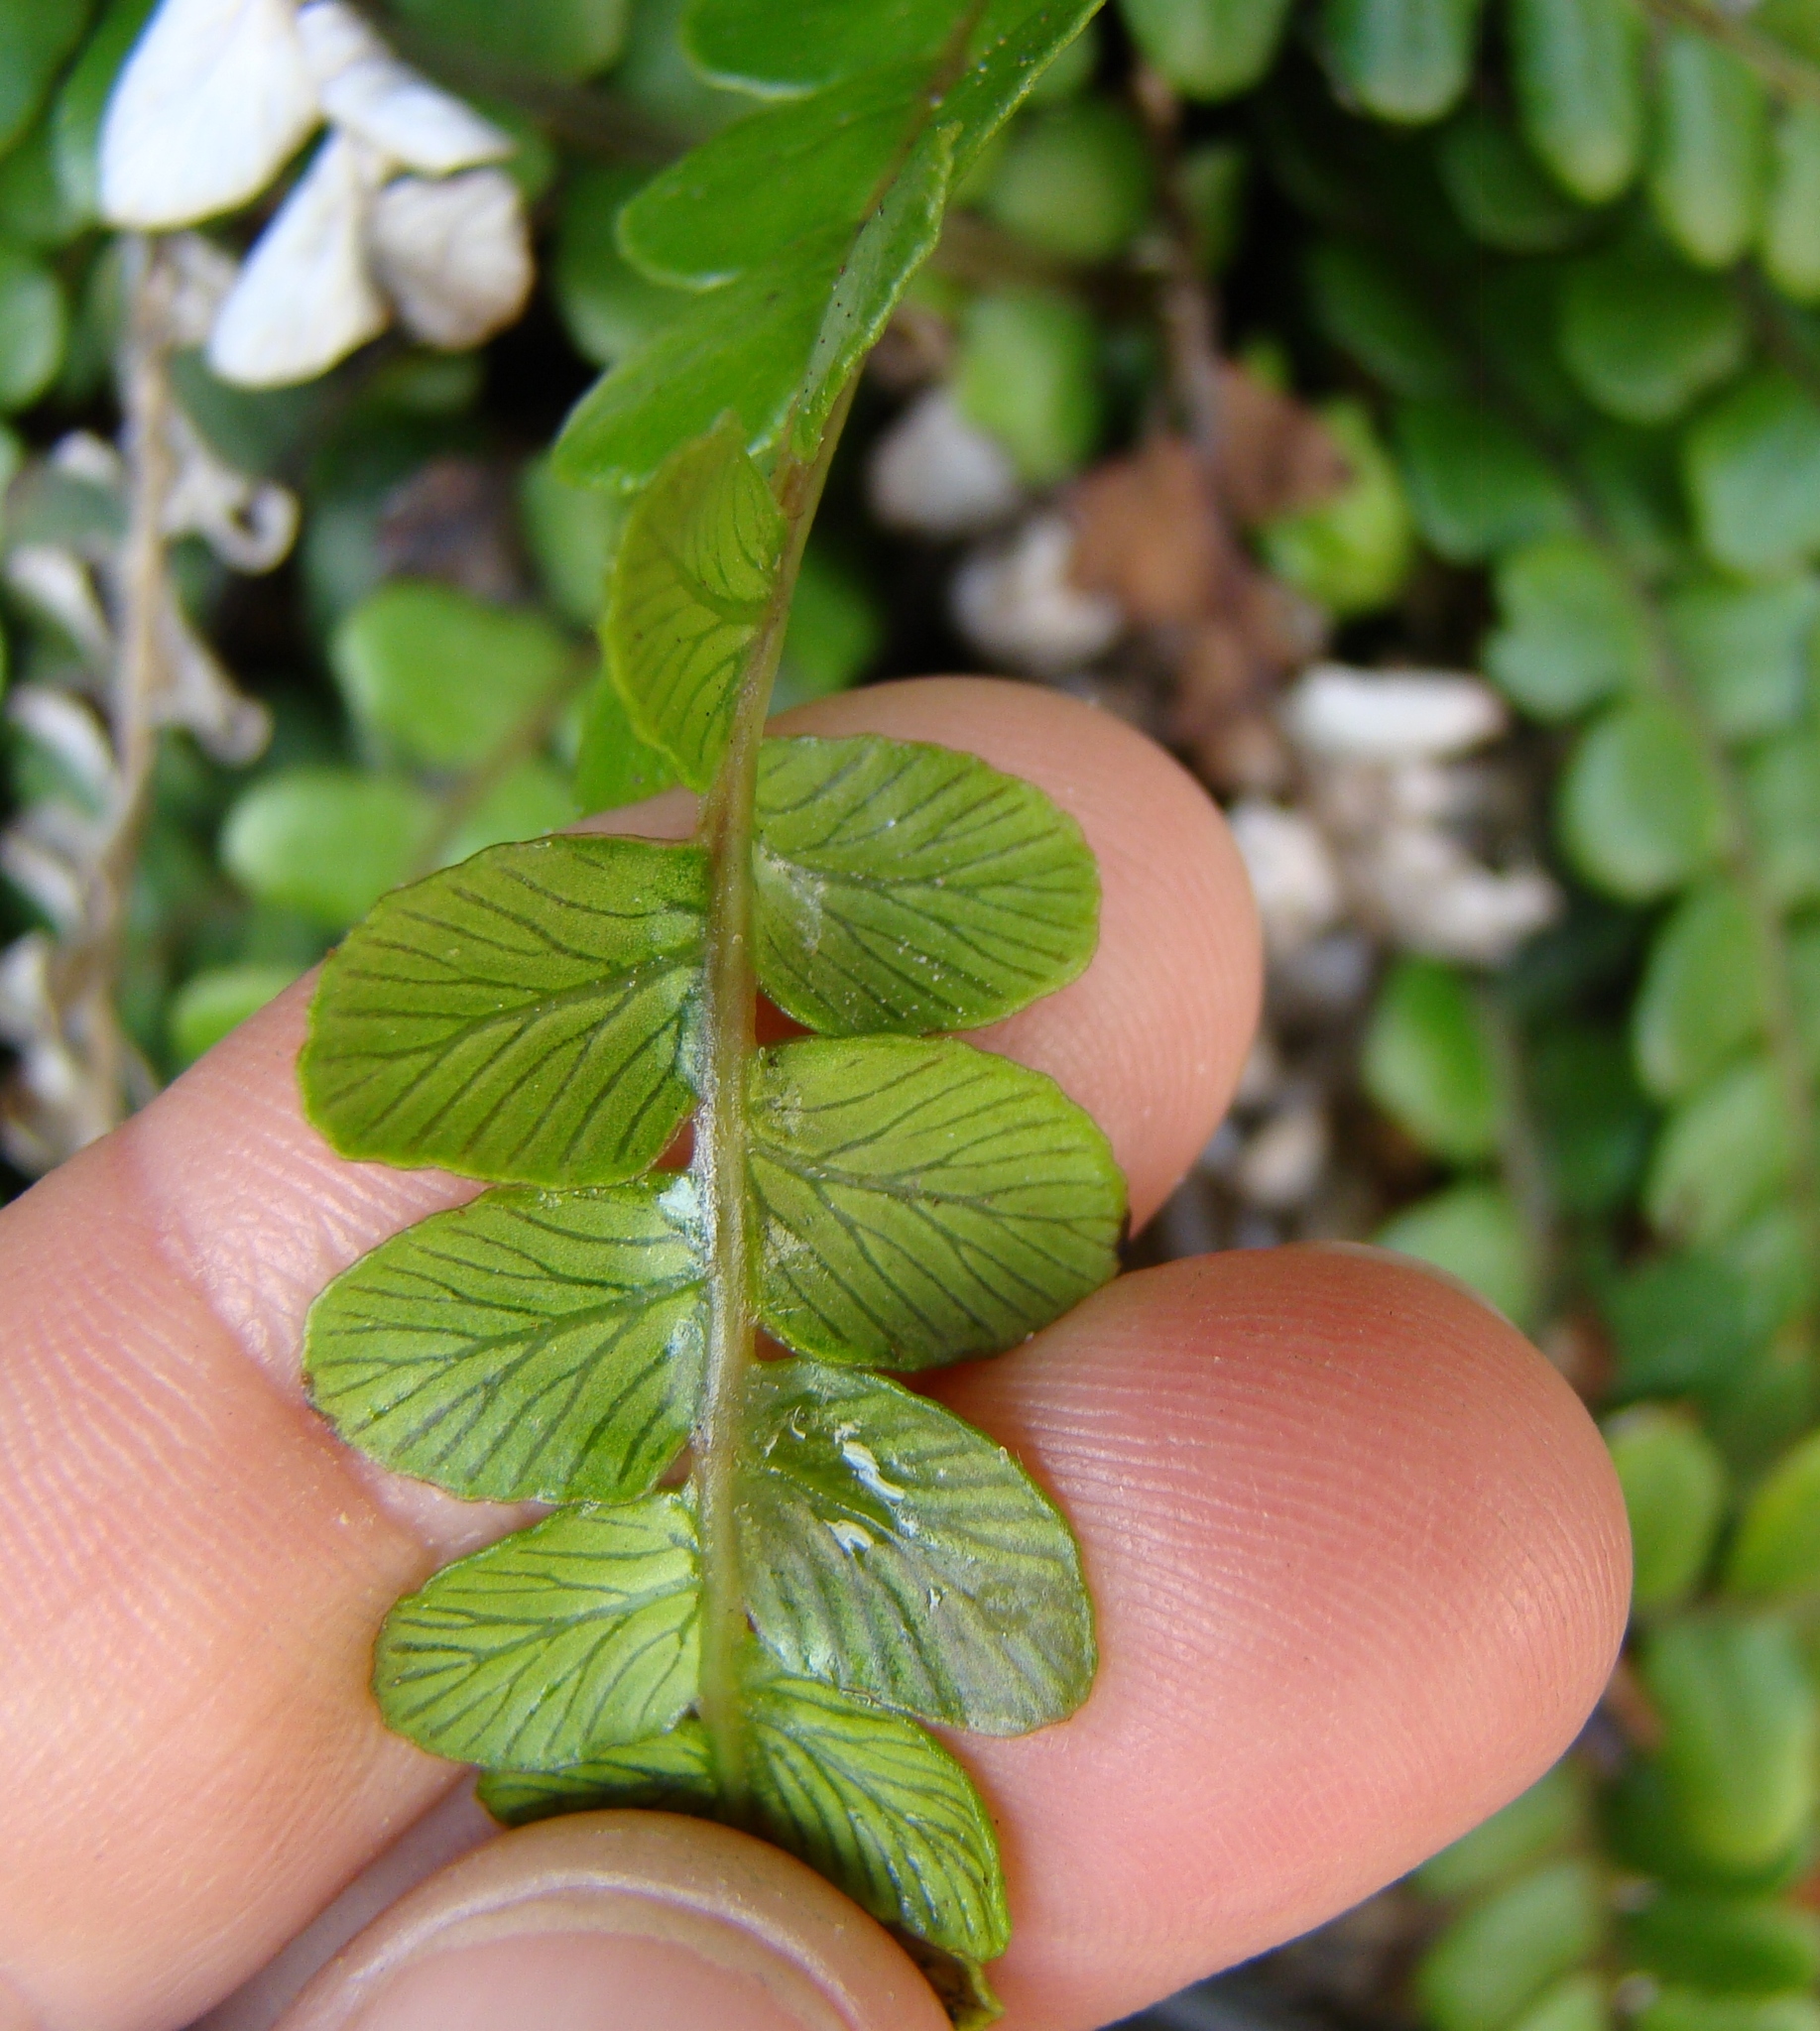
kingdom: Plantae
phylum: Tracheophyta
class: Polypodiopsida
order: Polypodiales
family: Blechnaceae
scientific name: Blechnaceae
